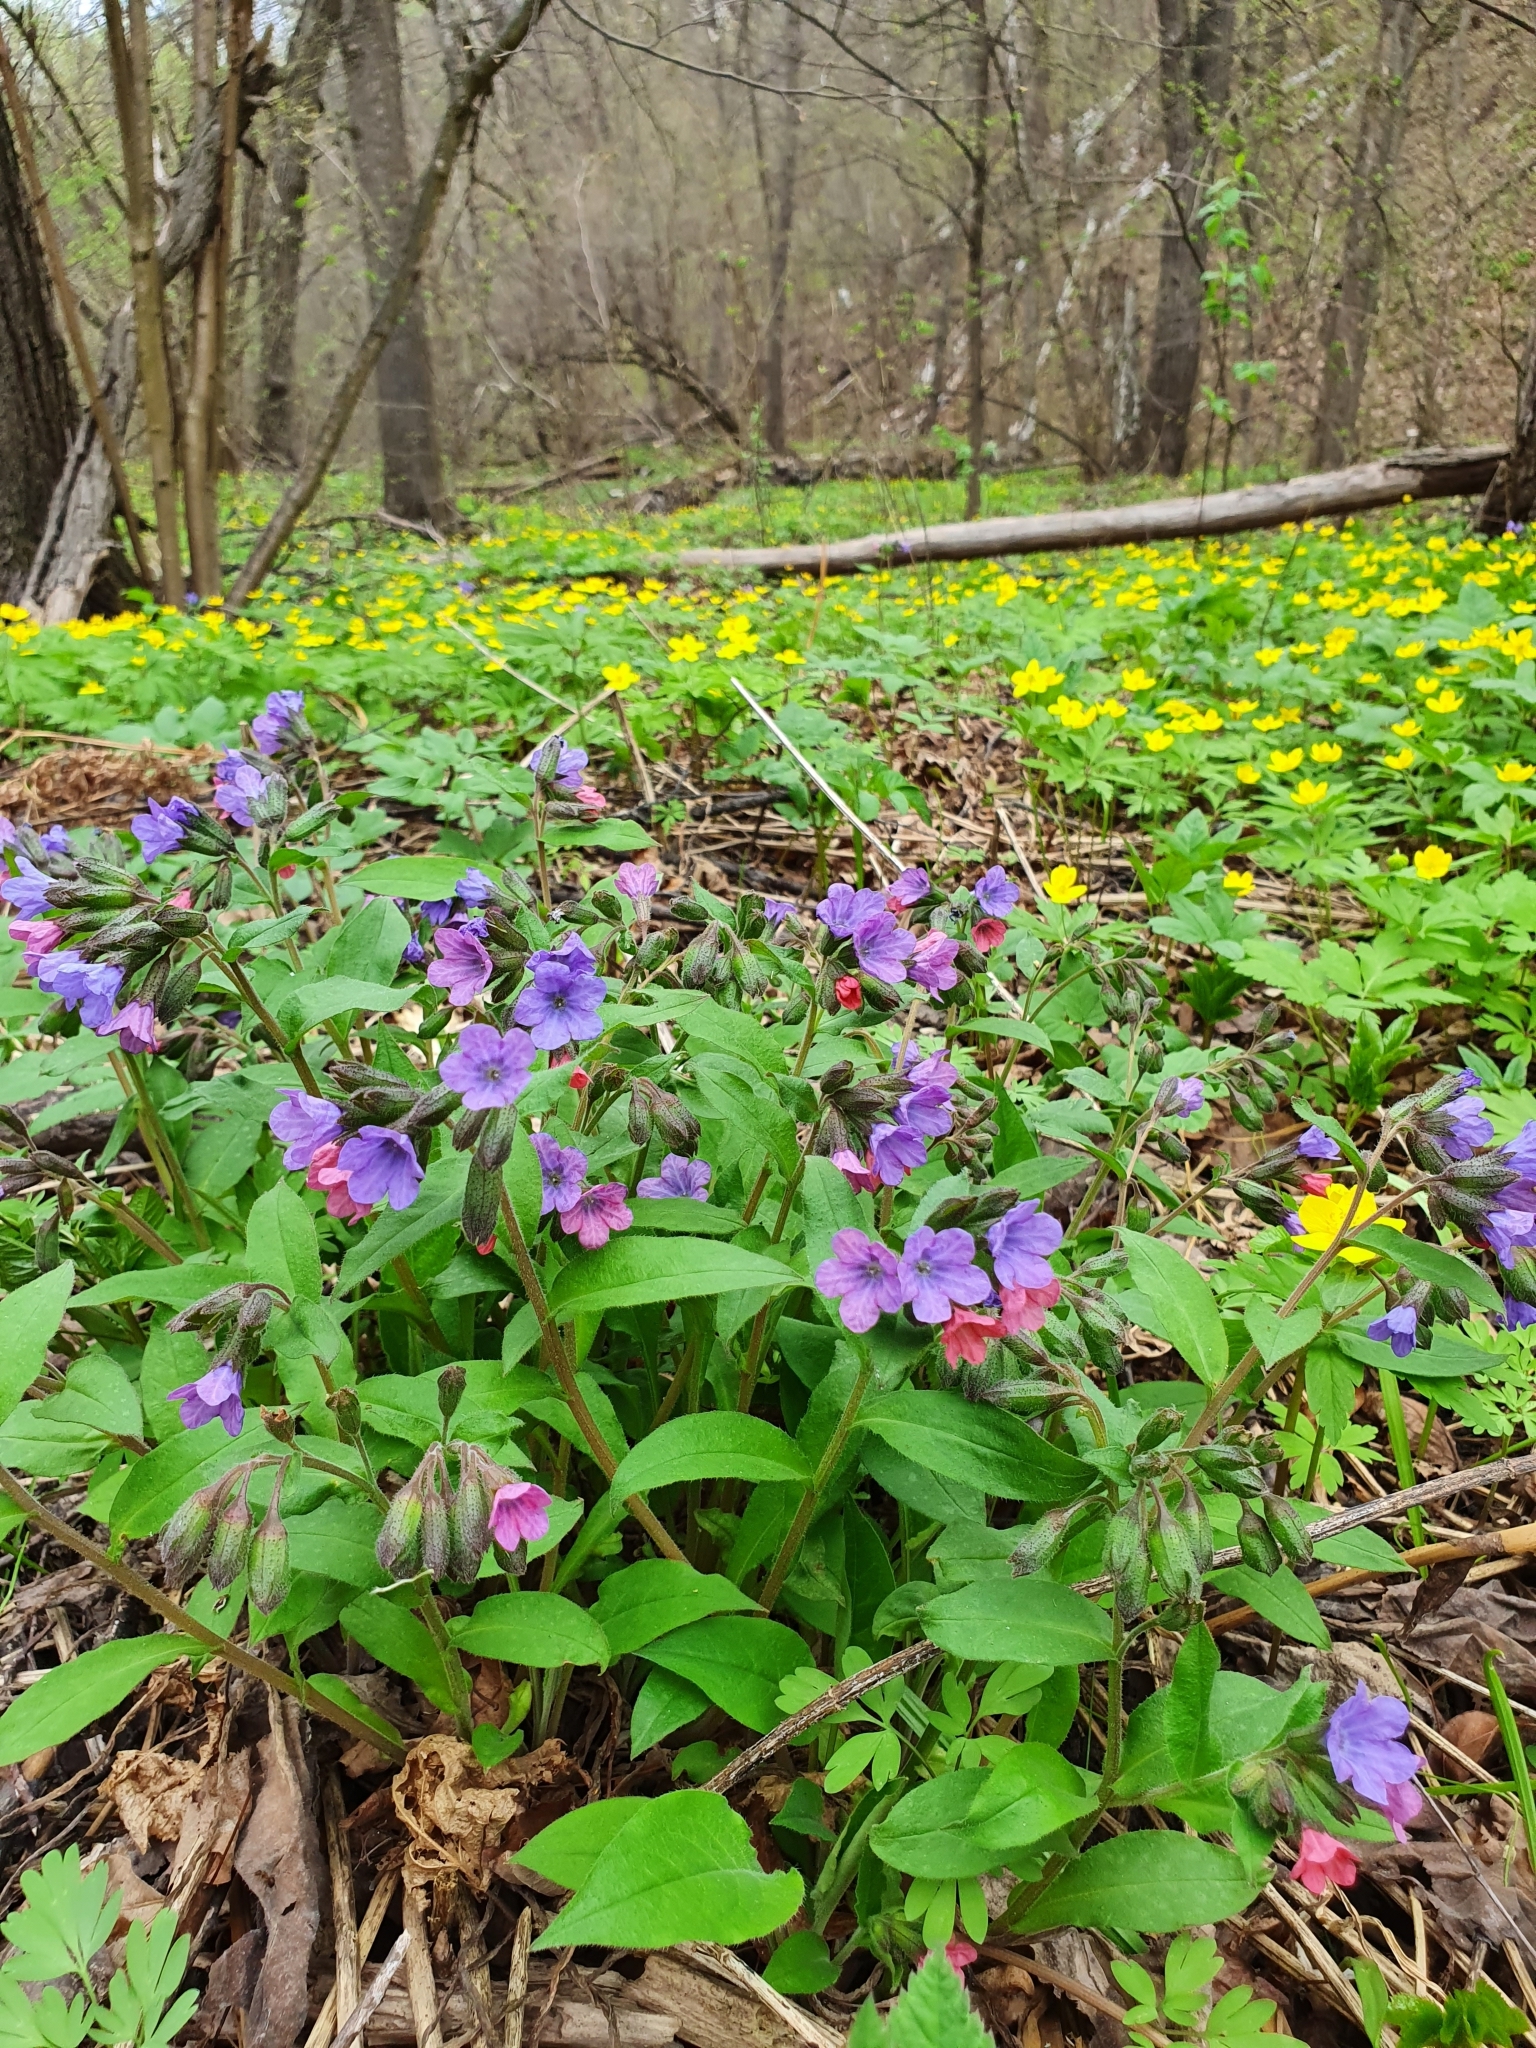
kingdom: Plantae
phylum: Tracheophyta
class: Magnoliopsida
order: Boraginales
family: Boraginaceae
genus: Pulmonaria
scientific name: Pulmonaria obscura
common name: Suffolk lungwort
